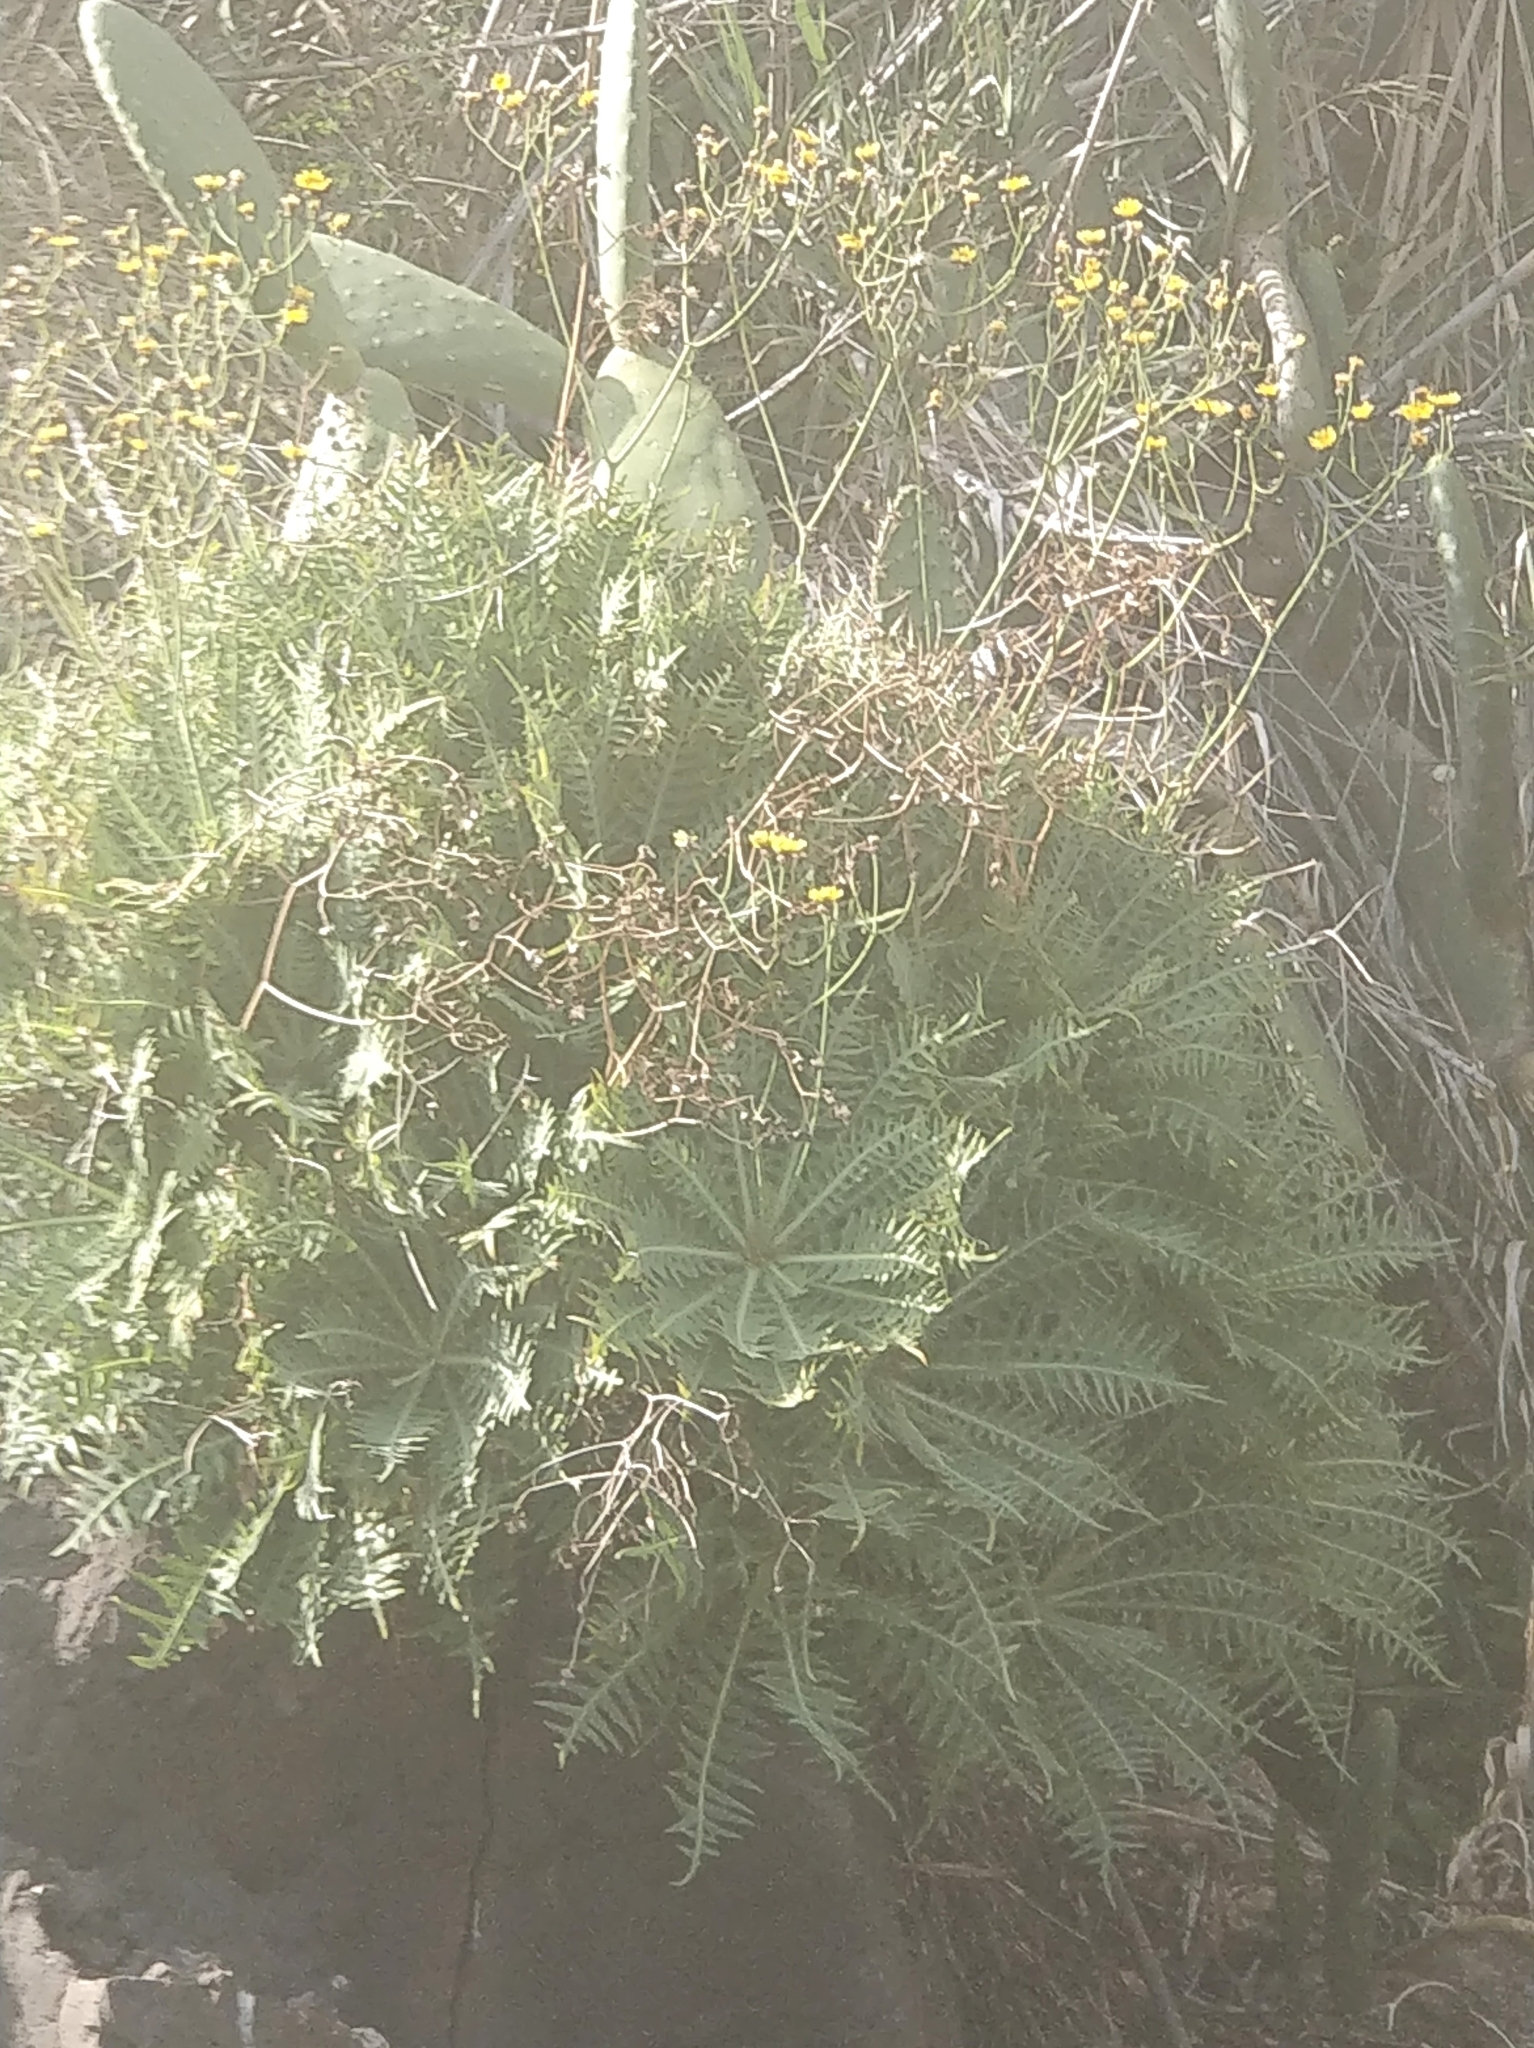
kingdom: Plantae
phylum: Tracheophyta
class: Magnoliopsida
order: Asterales
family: Asteraceae
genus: Sonchus
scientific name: Sonchus ustulatus
